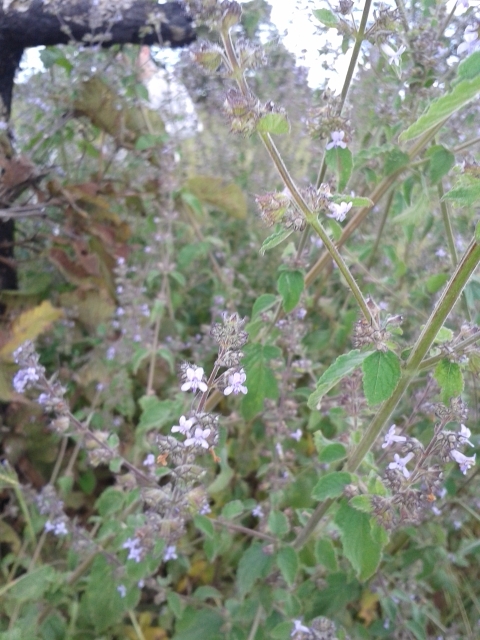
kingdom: Plantae
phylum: Tracheophyta
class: Magnoliopsida
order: Lamiales
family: Lamiaceae
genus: Mesosphaerum
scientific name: Mesosphaerum suaveolens
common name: Pignut
